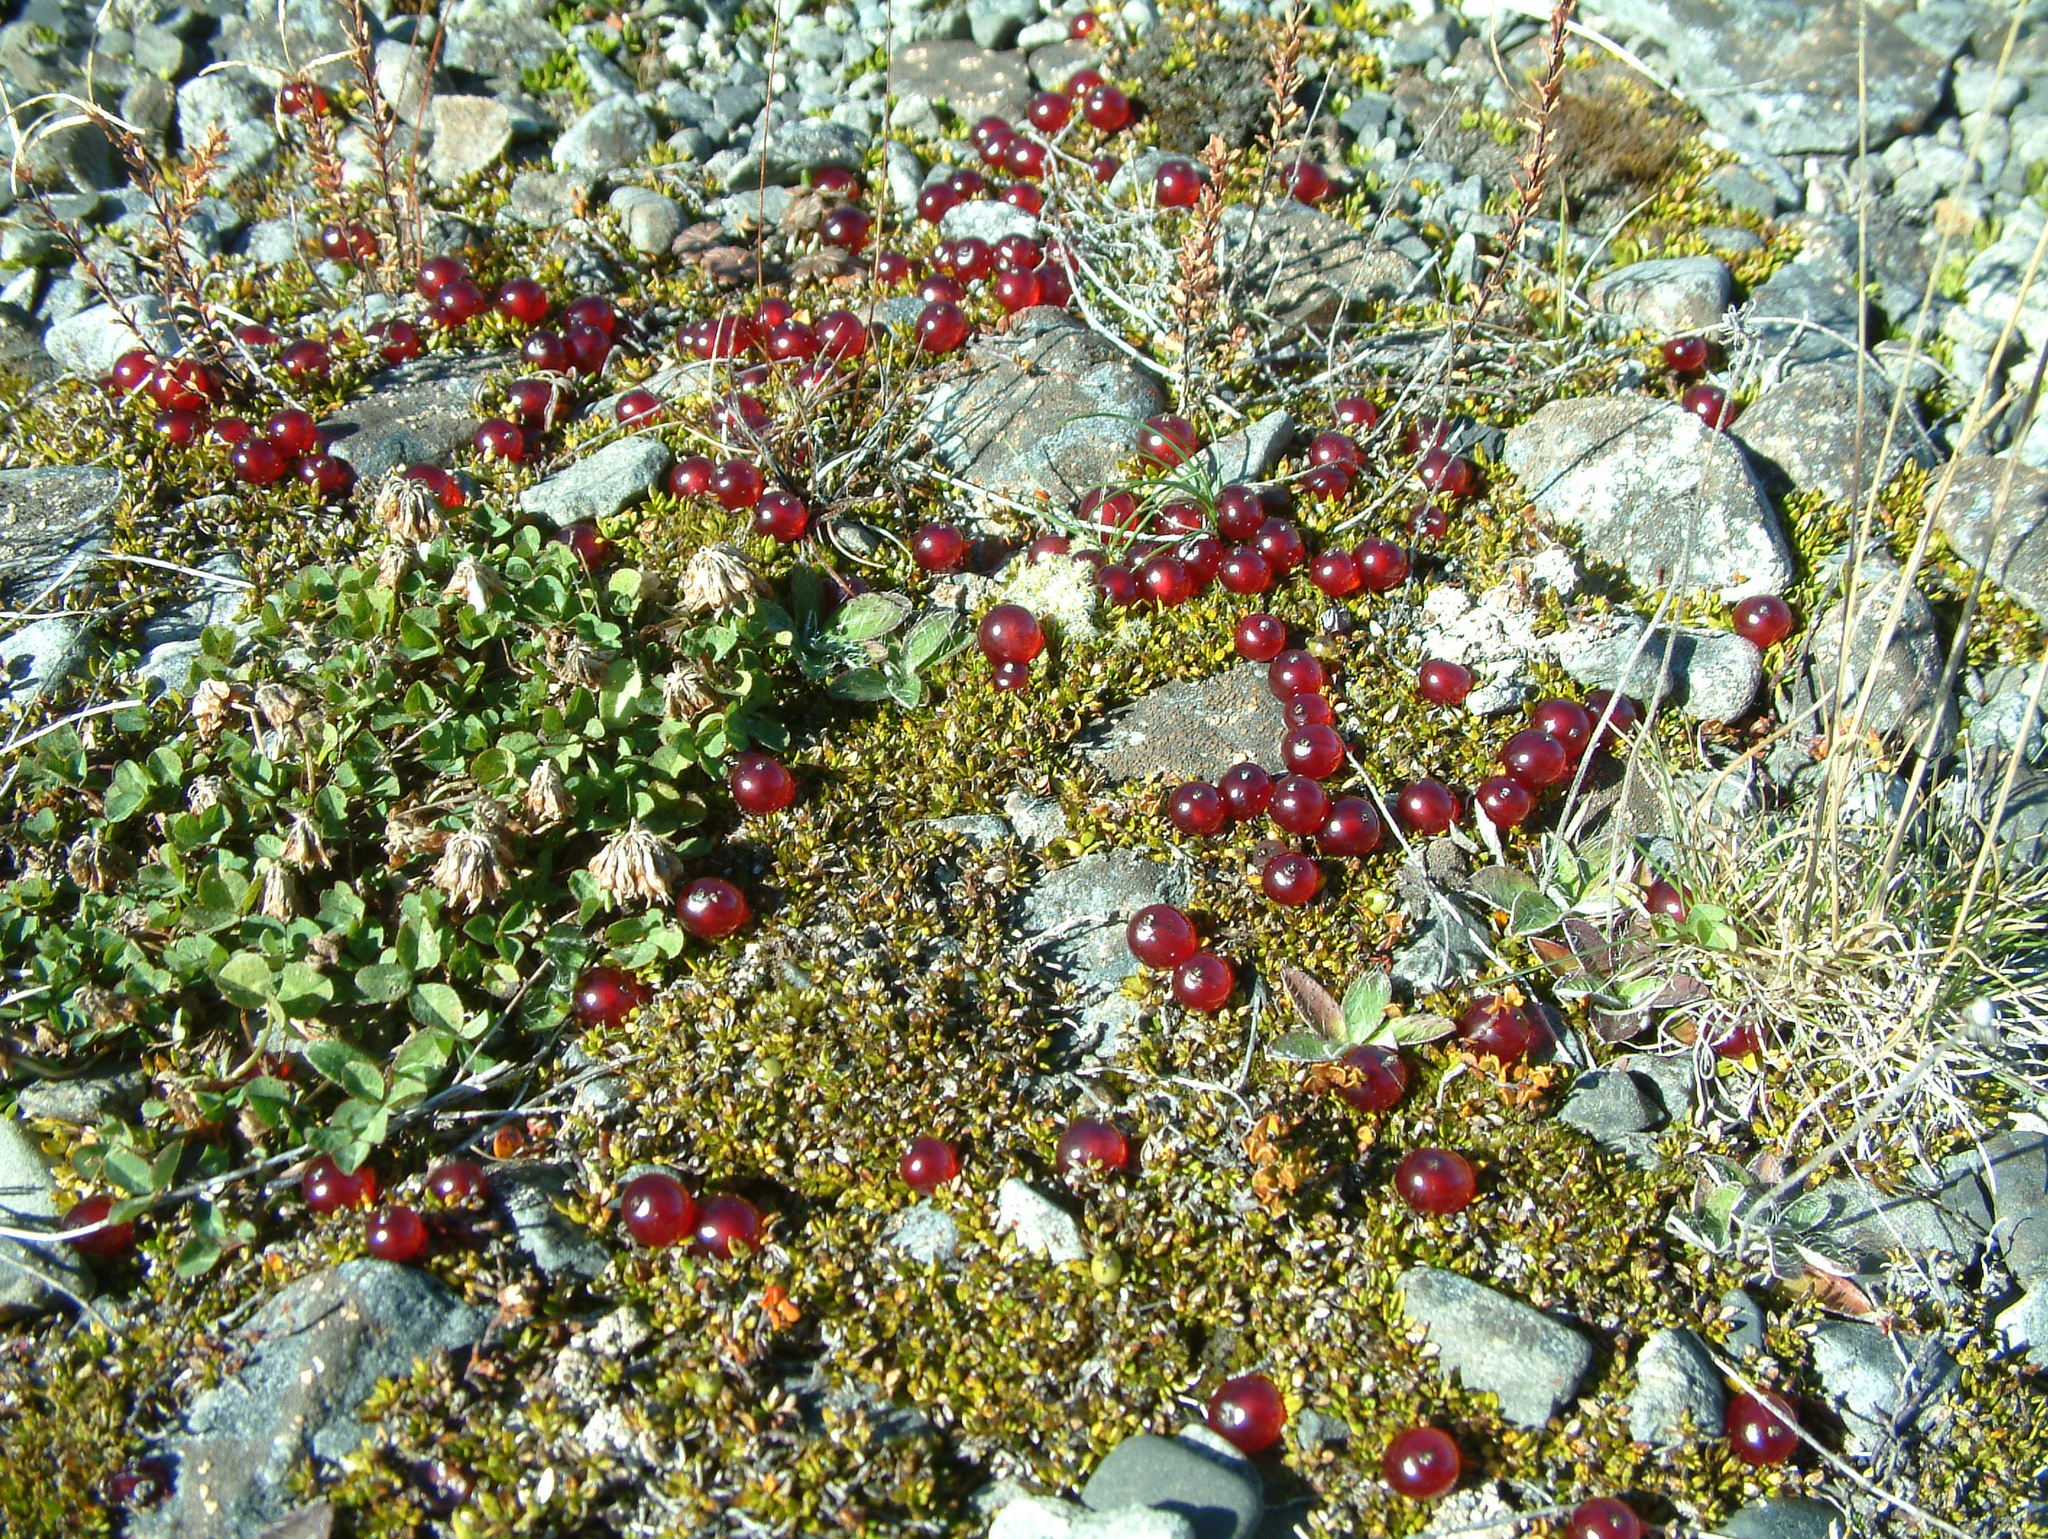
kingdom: Plantae
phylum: Tracheophyta
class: Magnoliopsida
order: Gentianales
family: Rubiaceae
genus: Coprosma
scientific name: Coprosma atropurpurea
